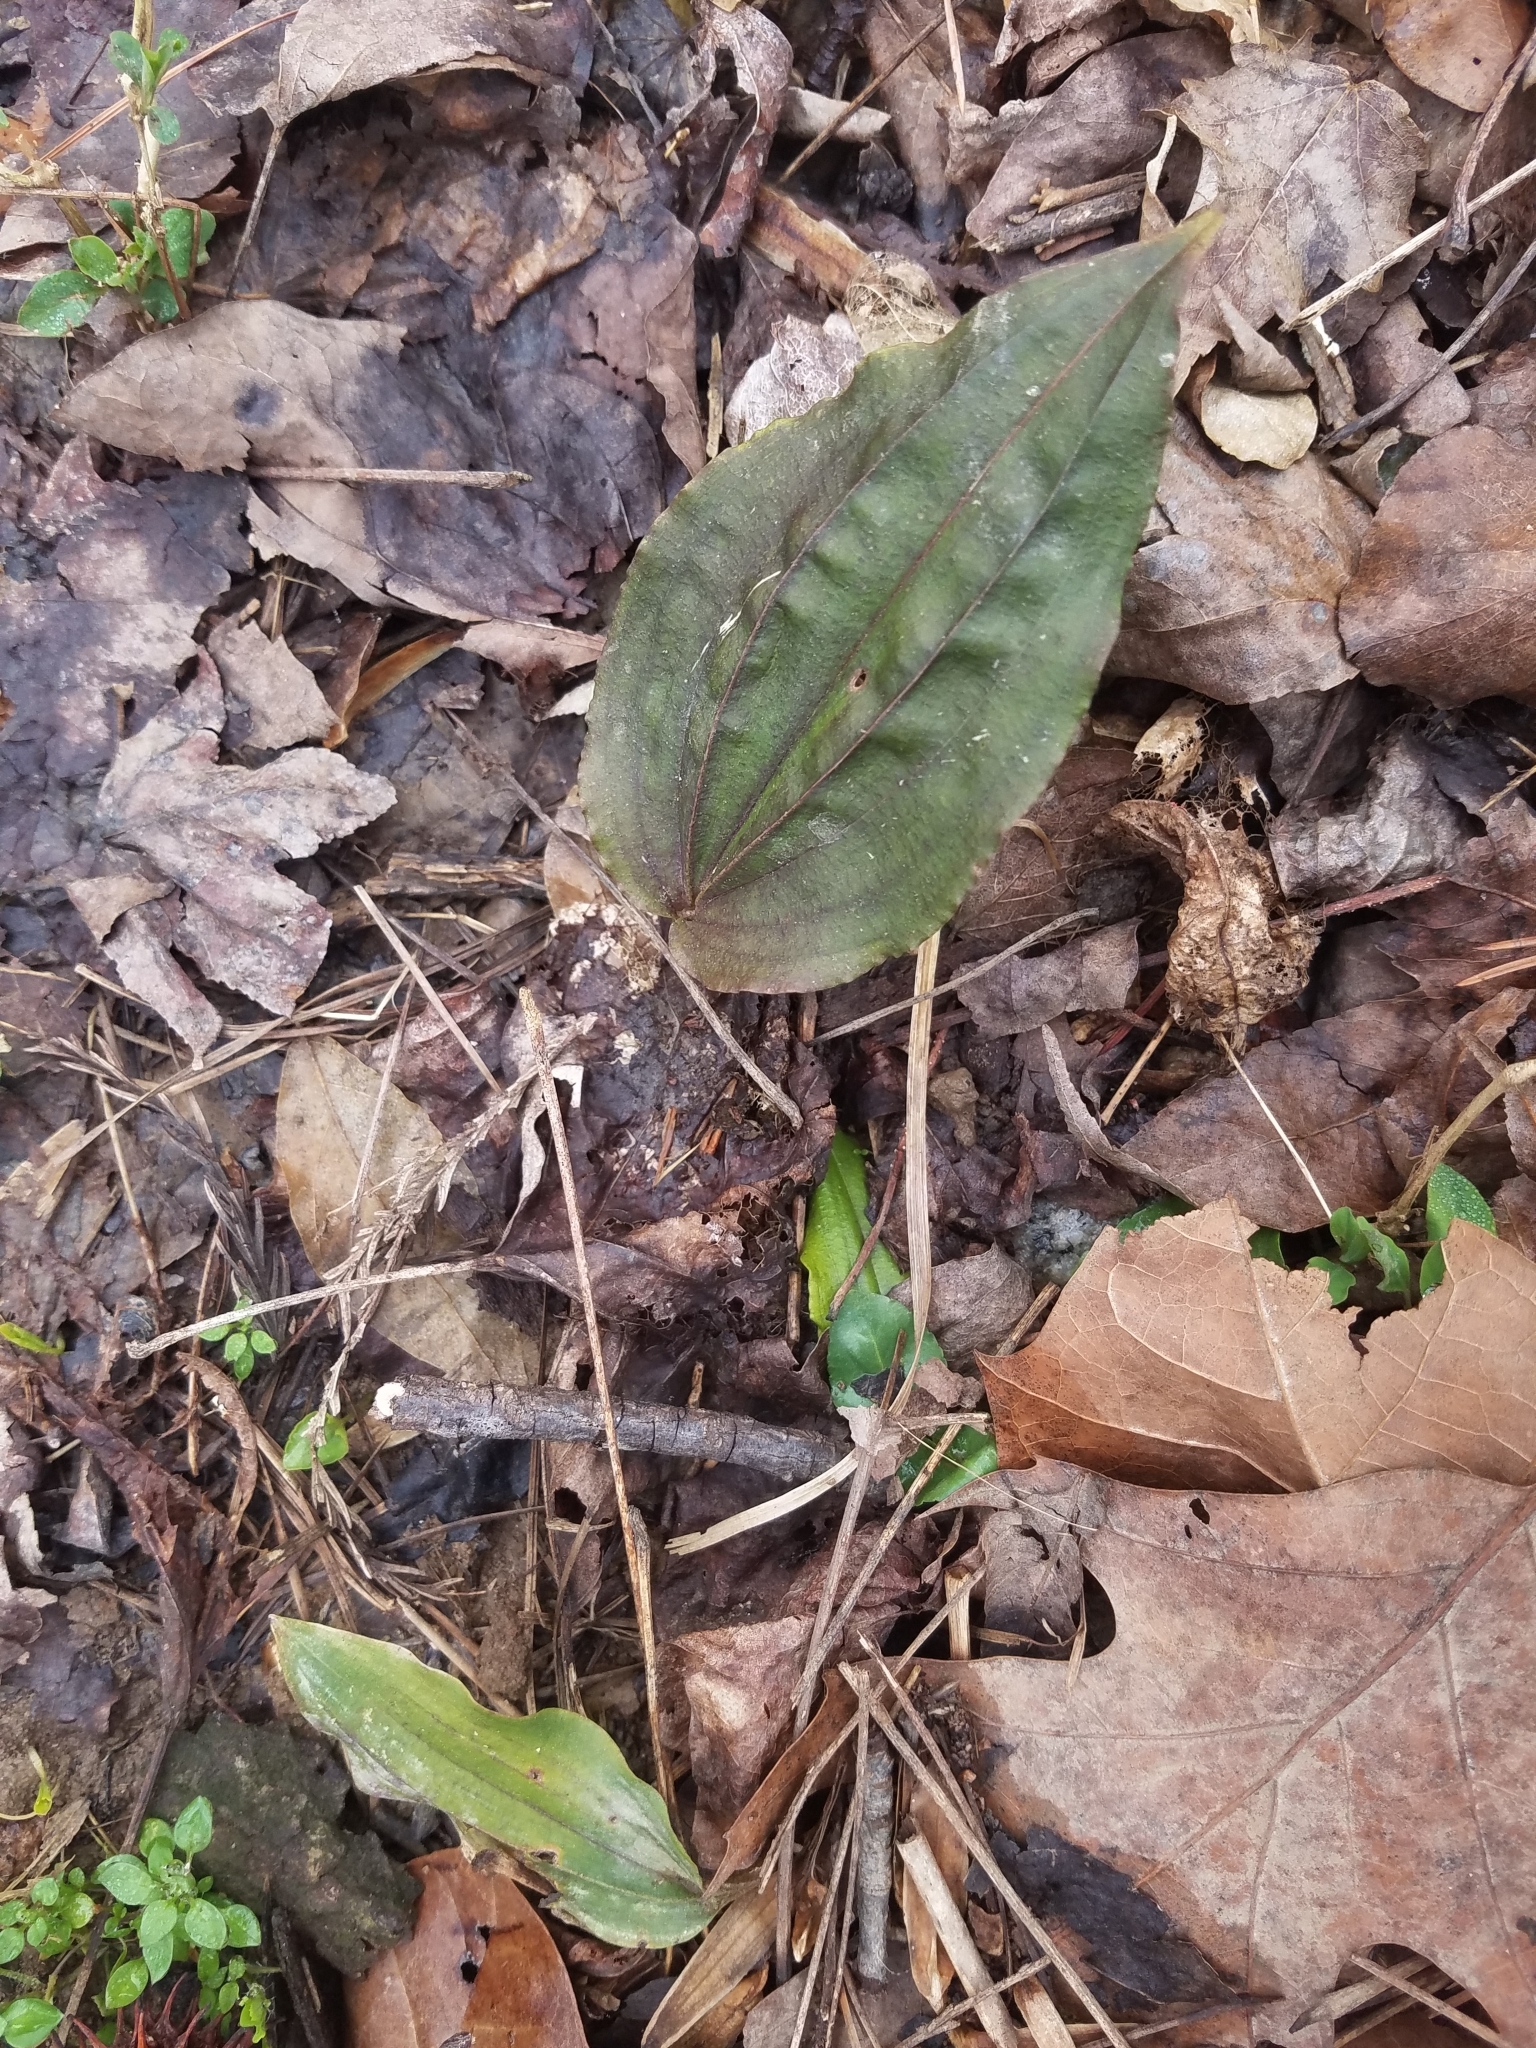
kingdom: Plantae
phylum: Tracheophyta
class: Liliopsida
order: Asparagales
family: Orchidaceae
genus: Tipularia
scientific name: Tipularia discolor
